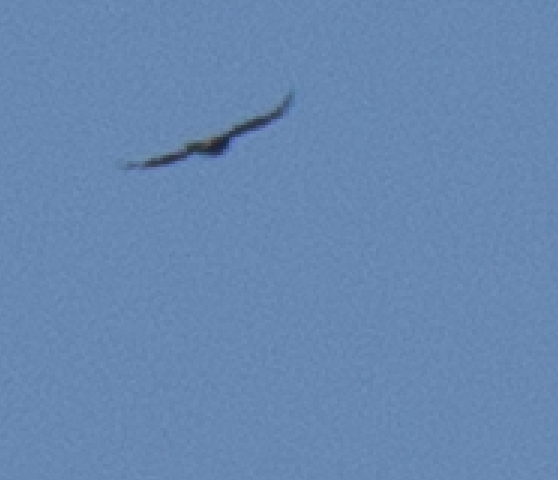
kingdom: Animalia
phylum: Chordata
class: Aves
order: Passeriformes
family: Corvidae
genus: Corvus
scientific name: Corvus corax
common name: Common raven
